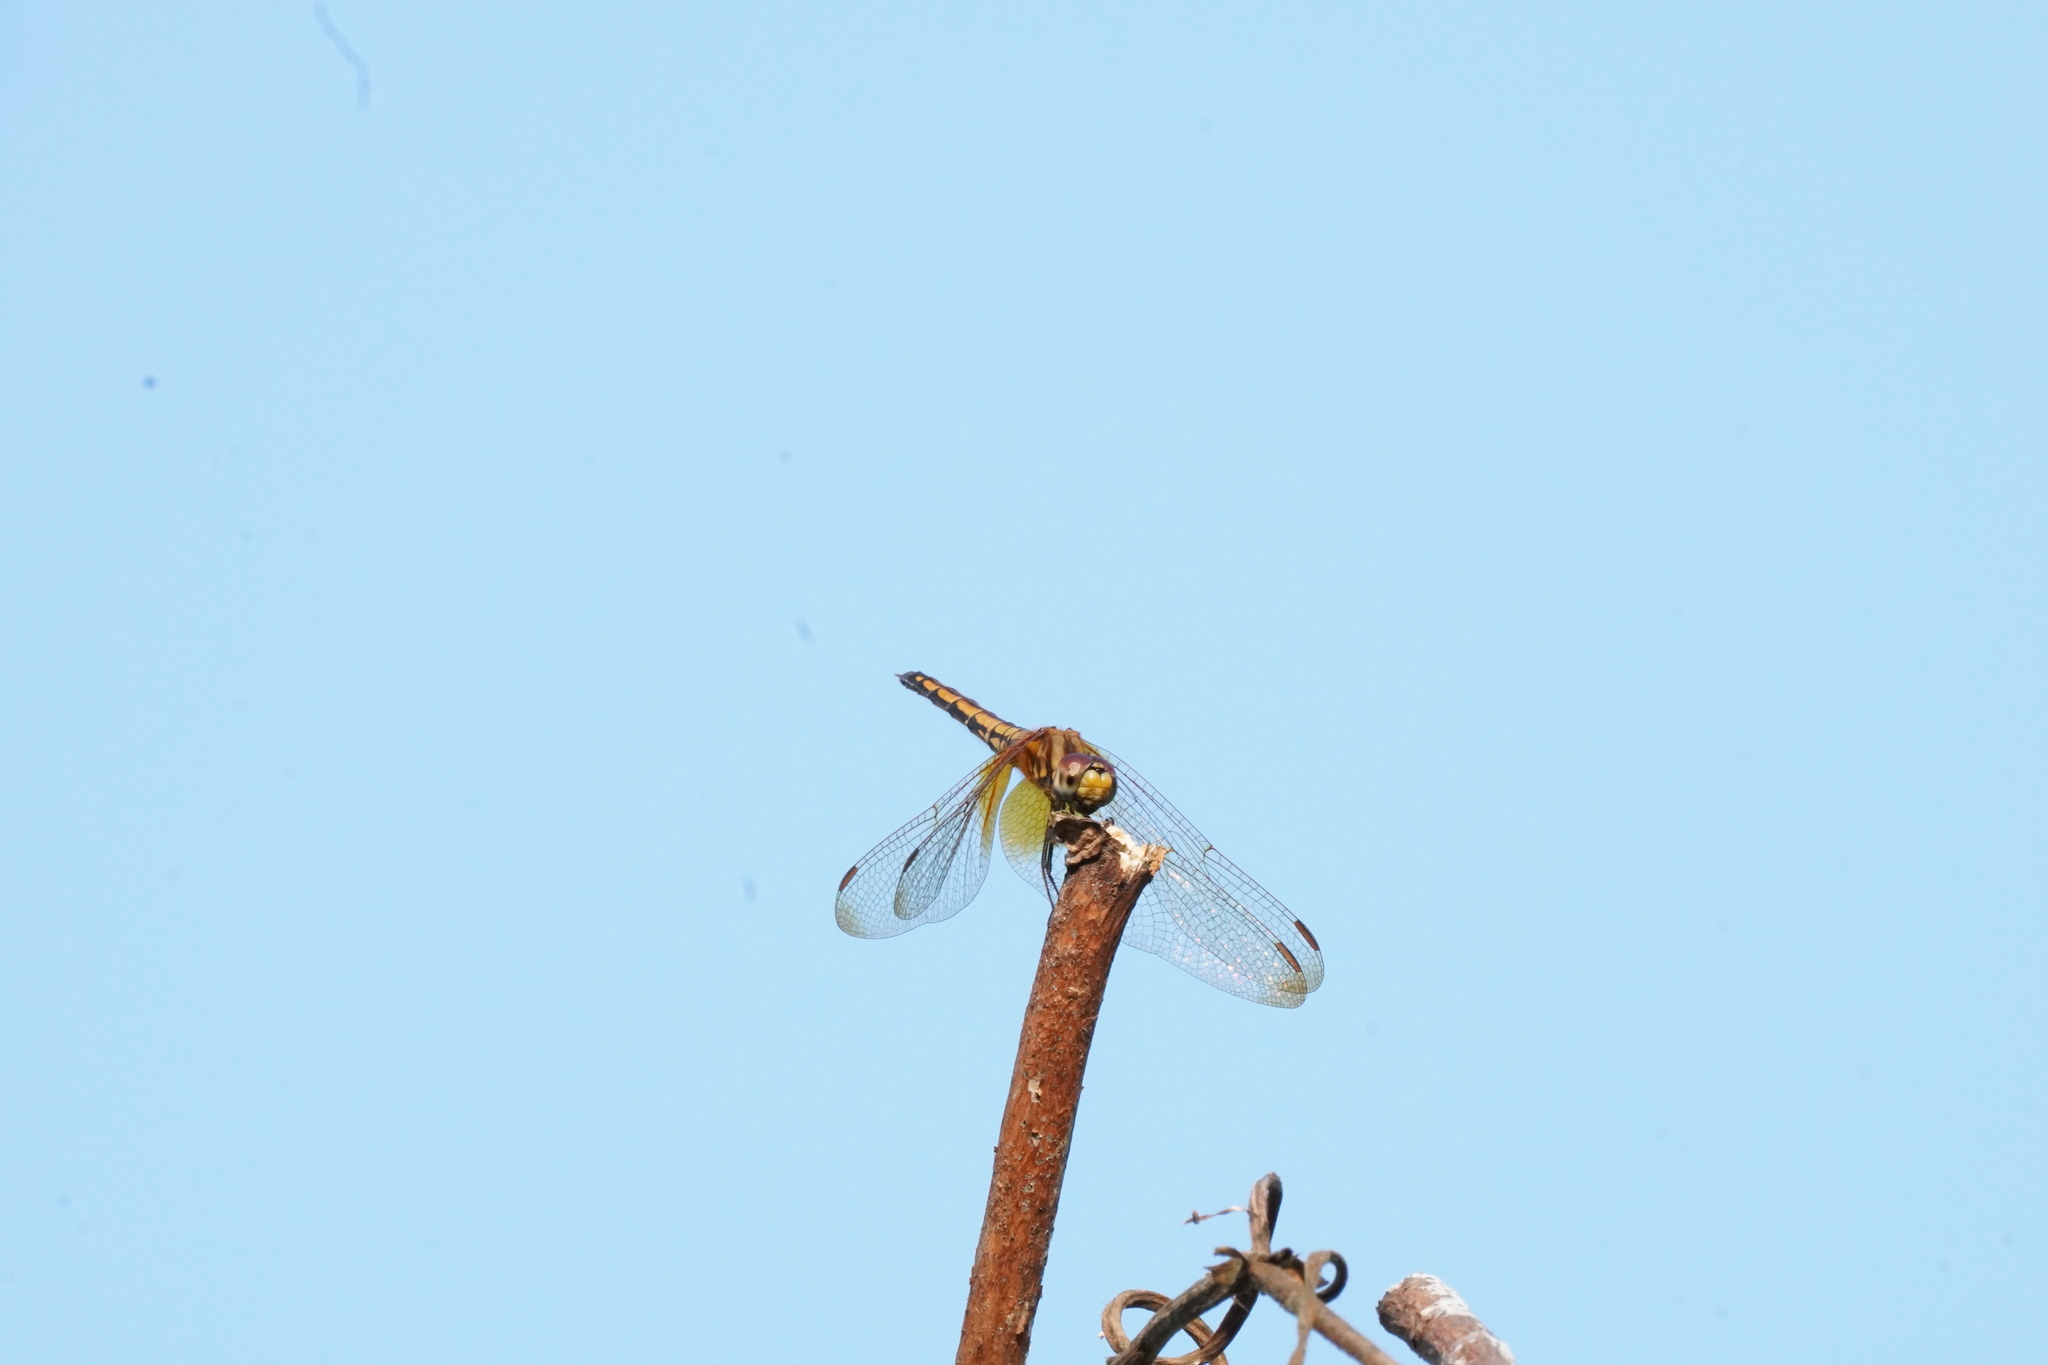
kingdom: Animalia
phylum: Arthropoda
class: Insecta
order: Odonata
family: Libellulidae
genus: Trithemis
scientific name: Trithemis aurora
